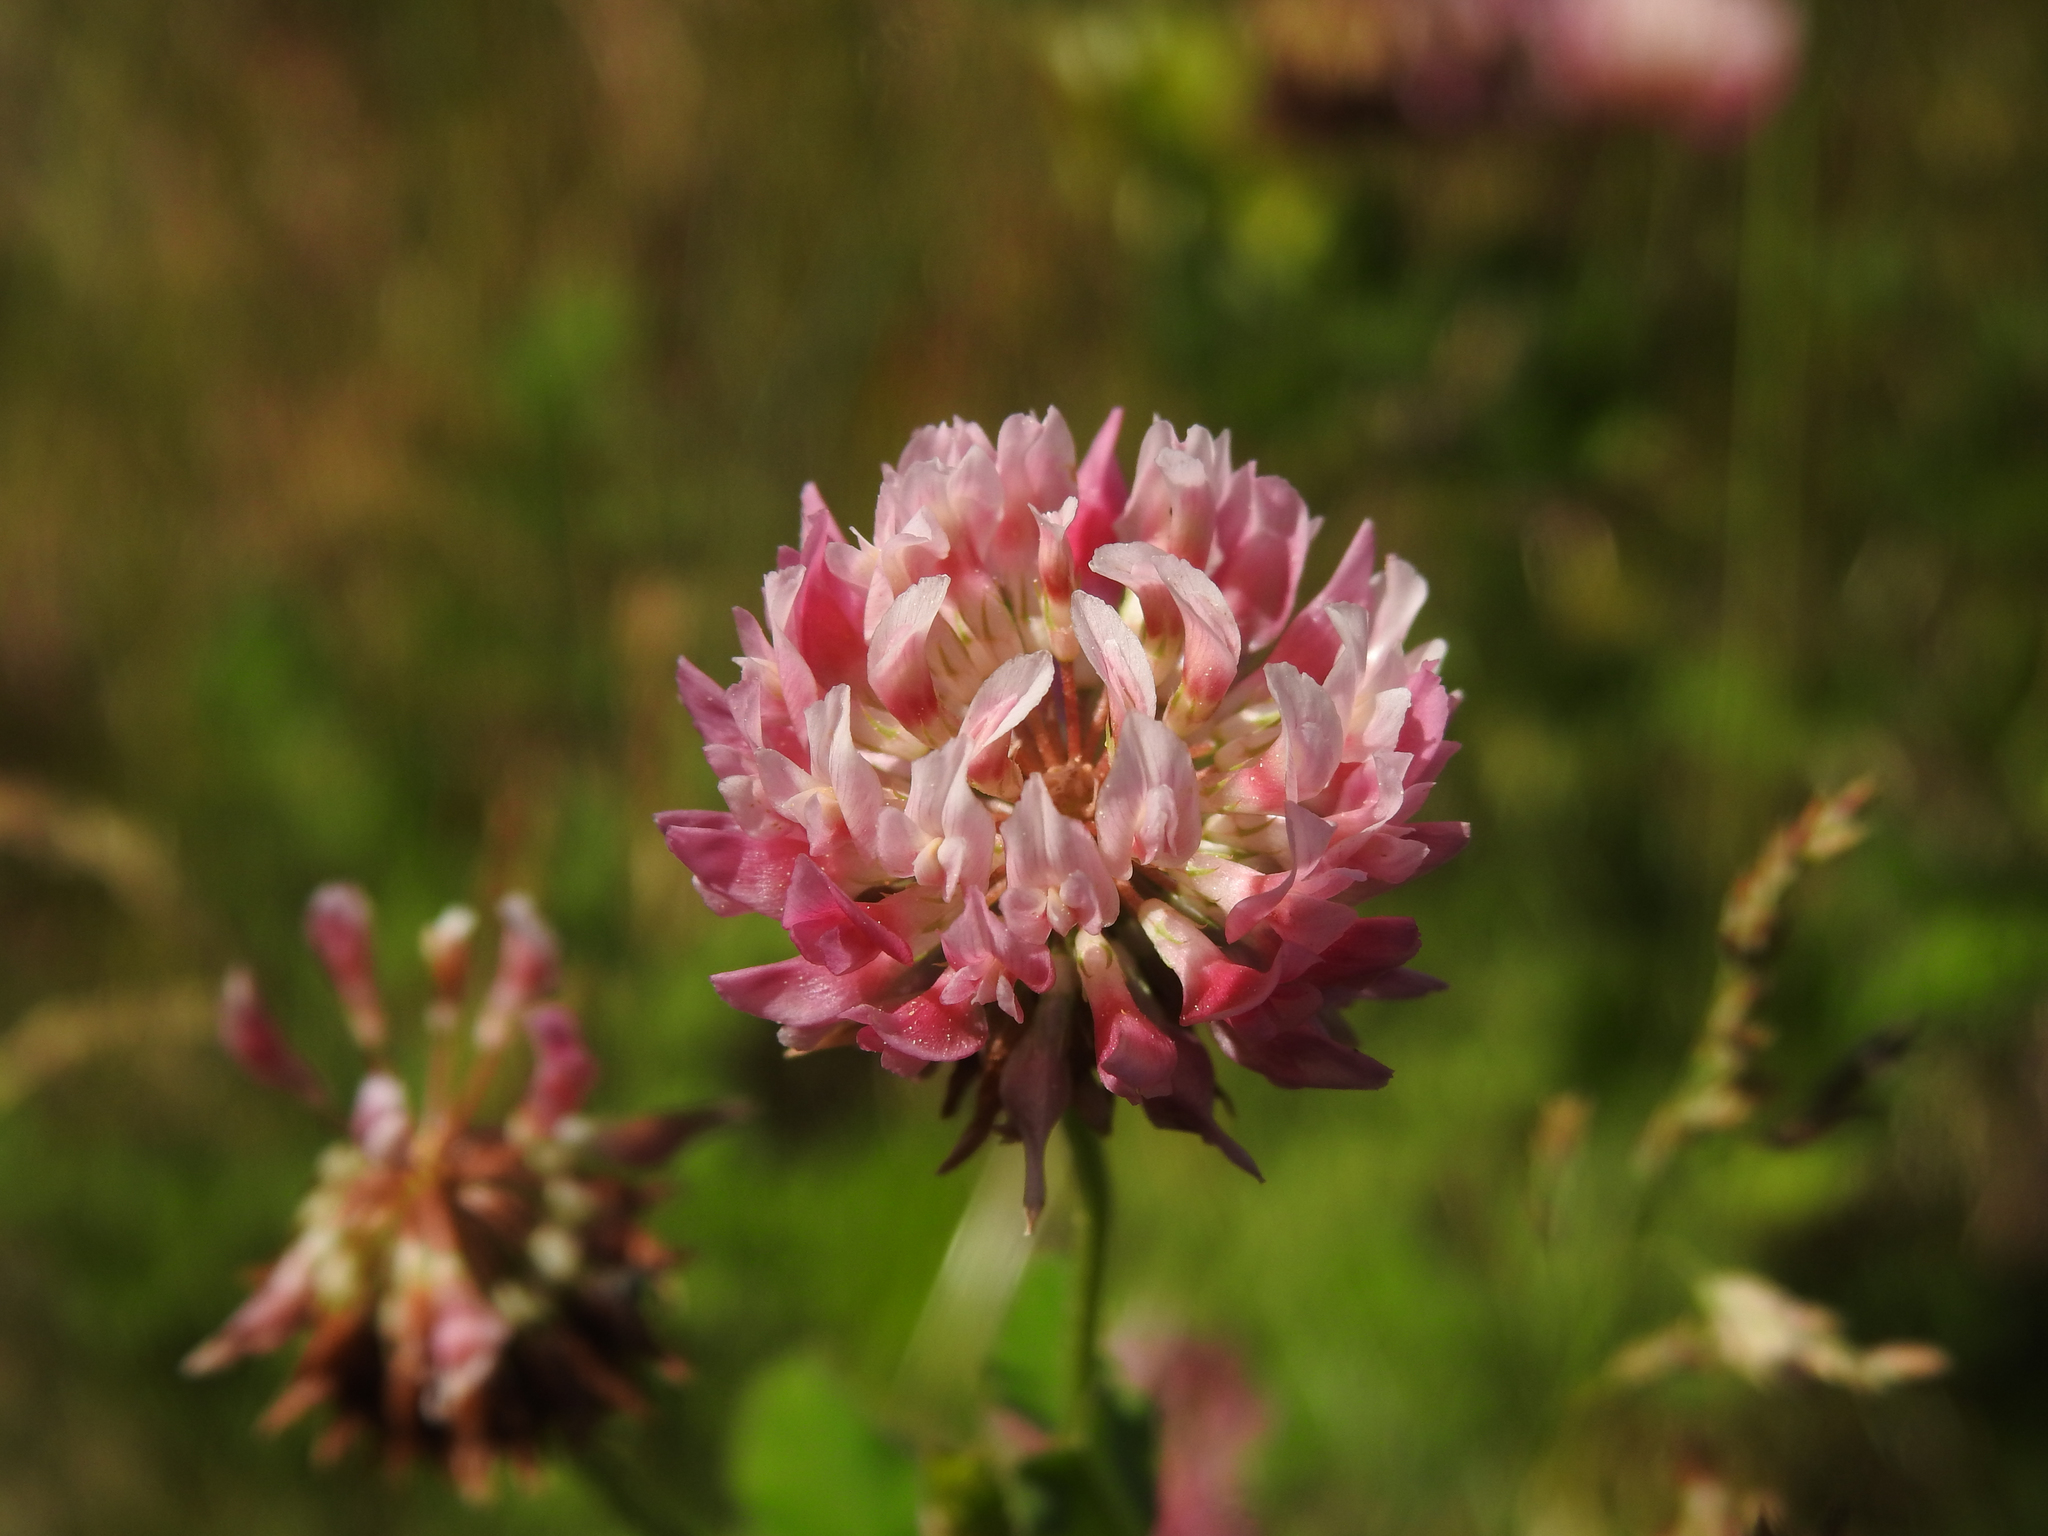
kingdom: Plantae
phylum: Tracheophyta
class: Magnoliopsida
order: Fabales
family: Fabaceae
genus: Trifolium
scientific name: Trifolium hybridum
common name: Alsike clover
